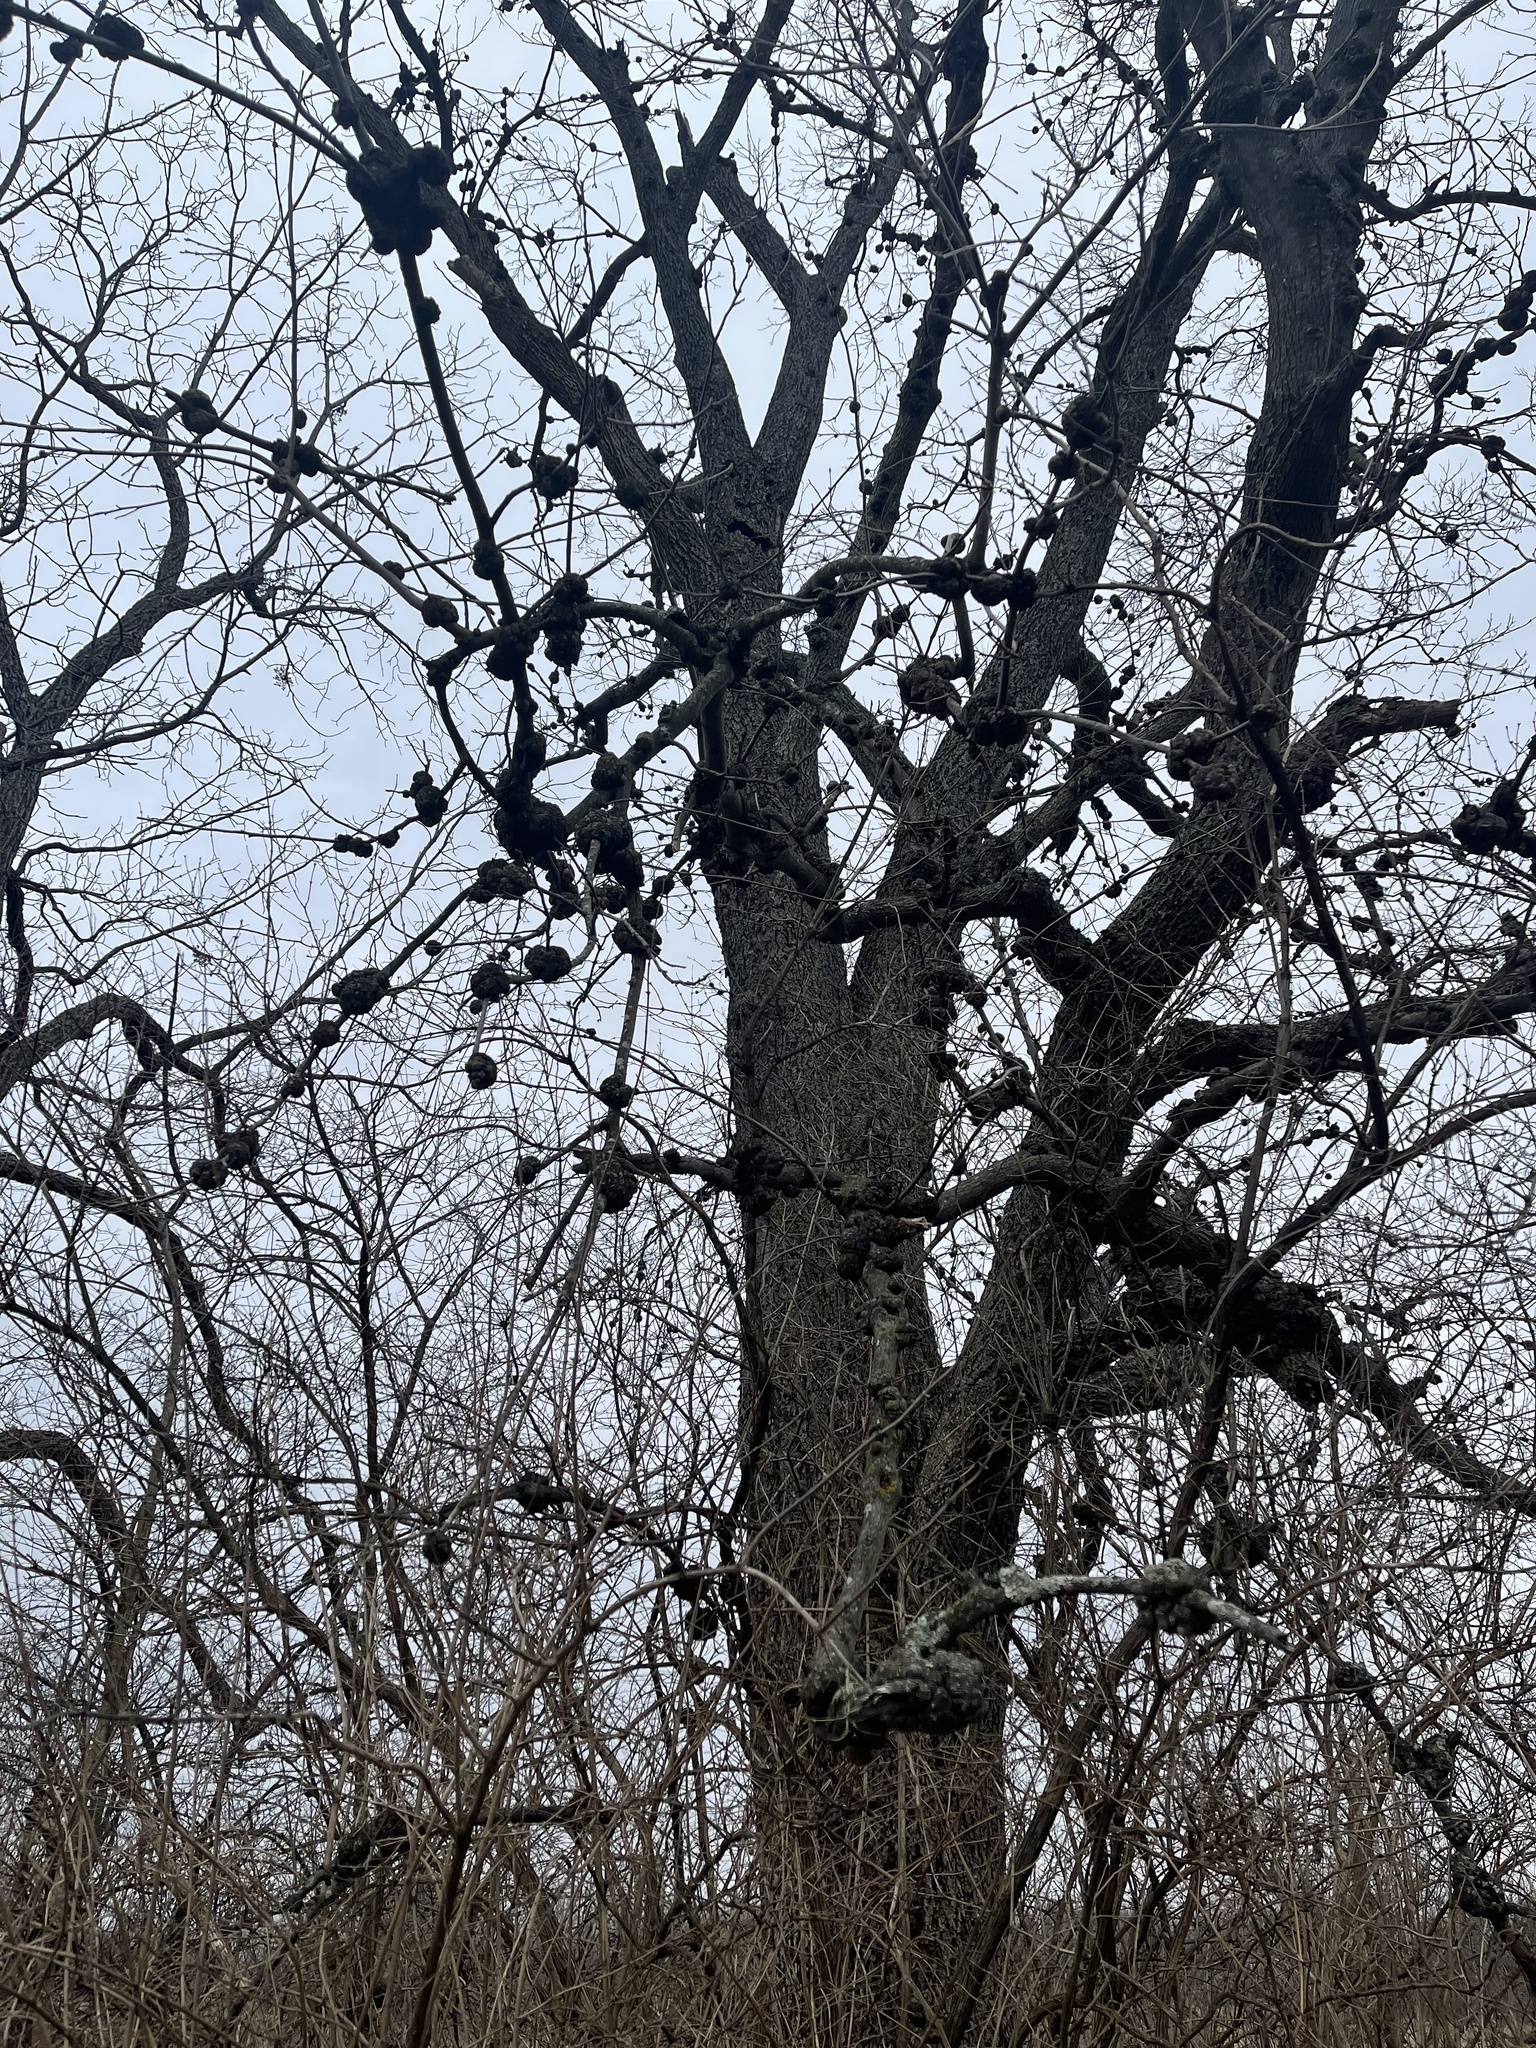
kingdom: Fungi
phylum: Ascomycota
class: Dothideomycetes
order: Venturiales
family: Venturiaceae
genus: Apiosporina
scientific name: Apiosporina morbosa
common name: Black knot
